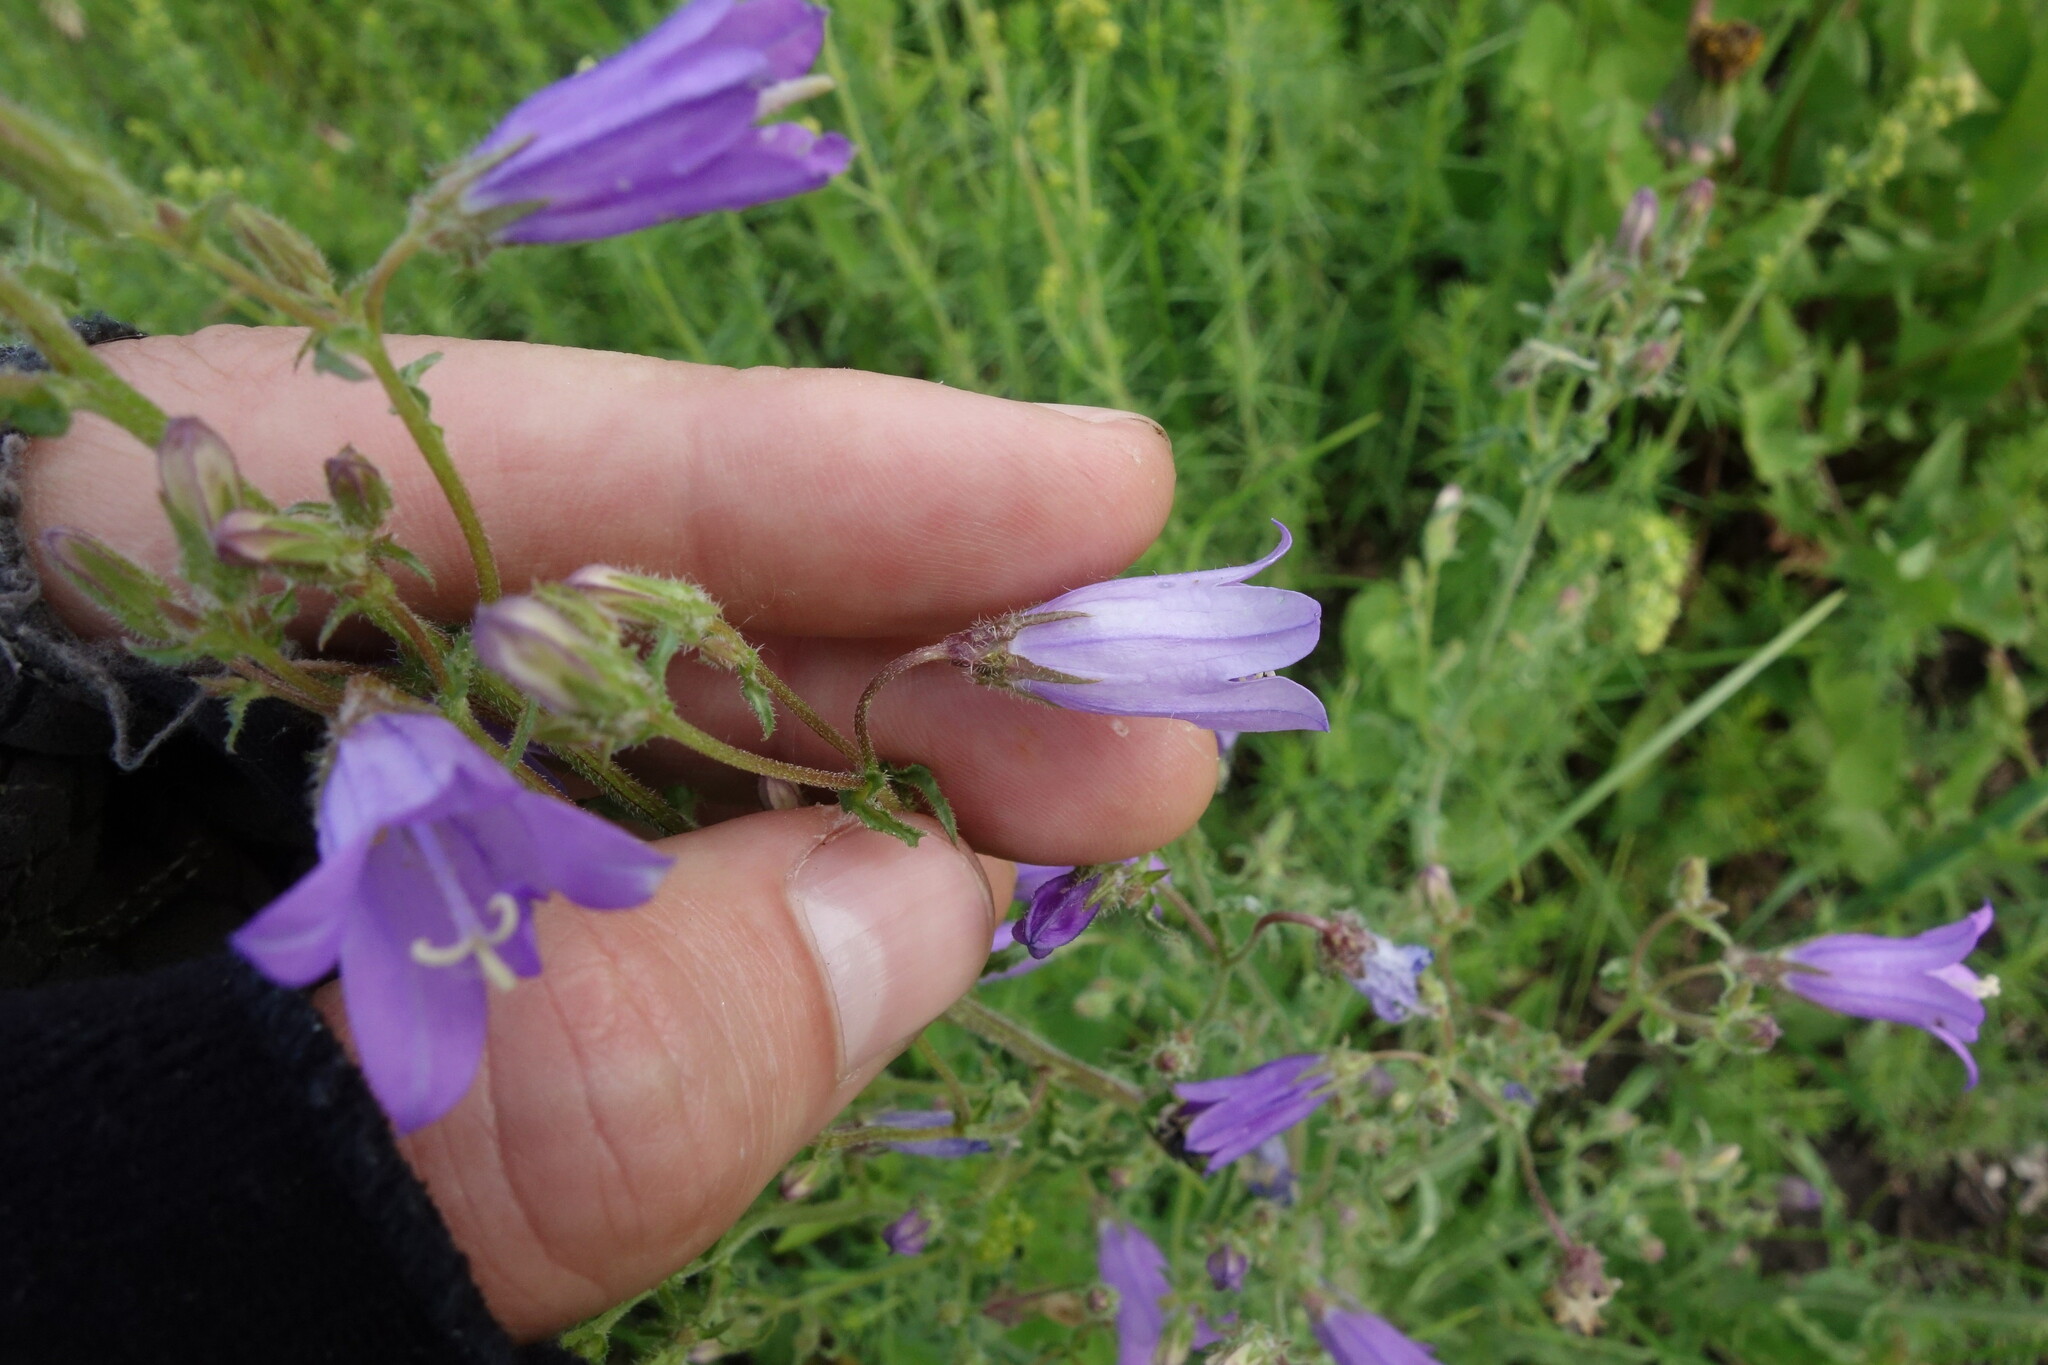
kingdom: Plantae
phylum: Tracheophyta
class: Magnoliopsida
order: Asterales
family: Campanulaceae
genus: Campanula
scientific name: Campanula sibirica
